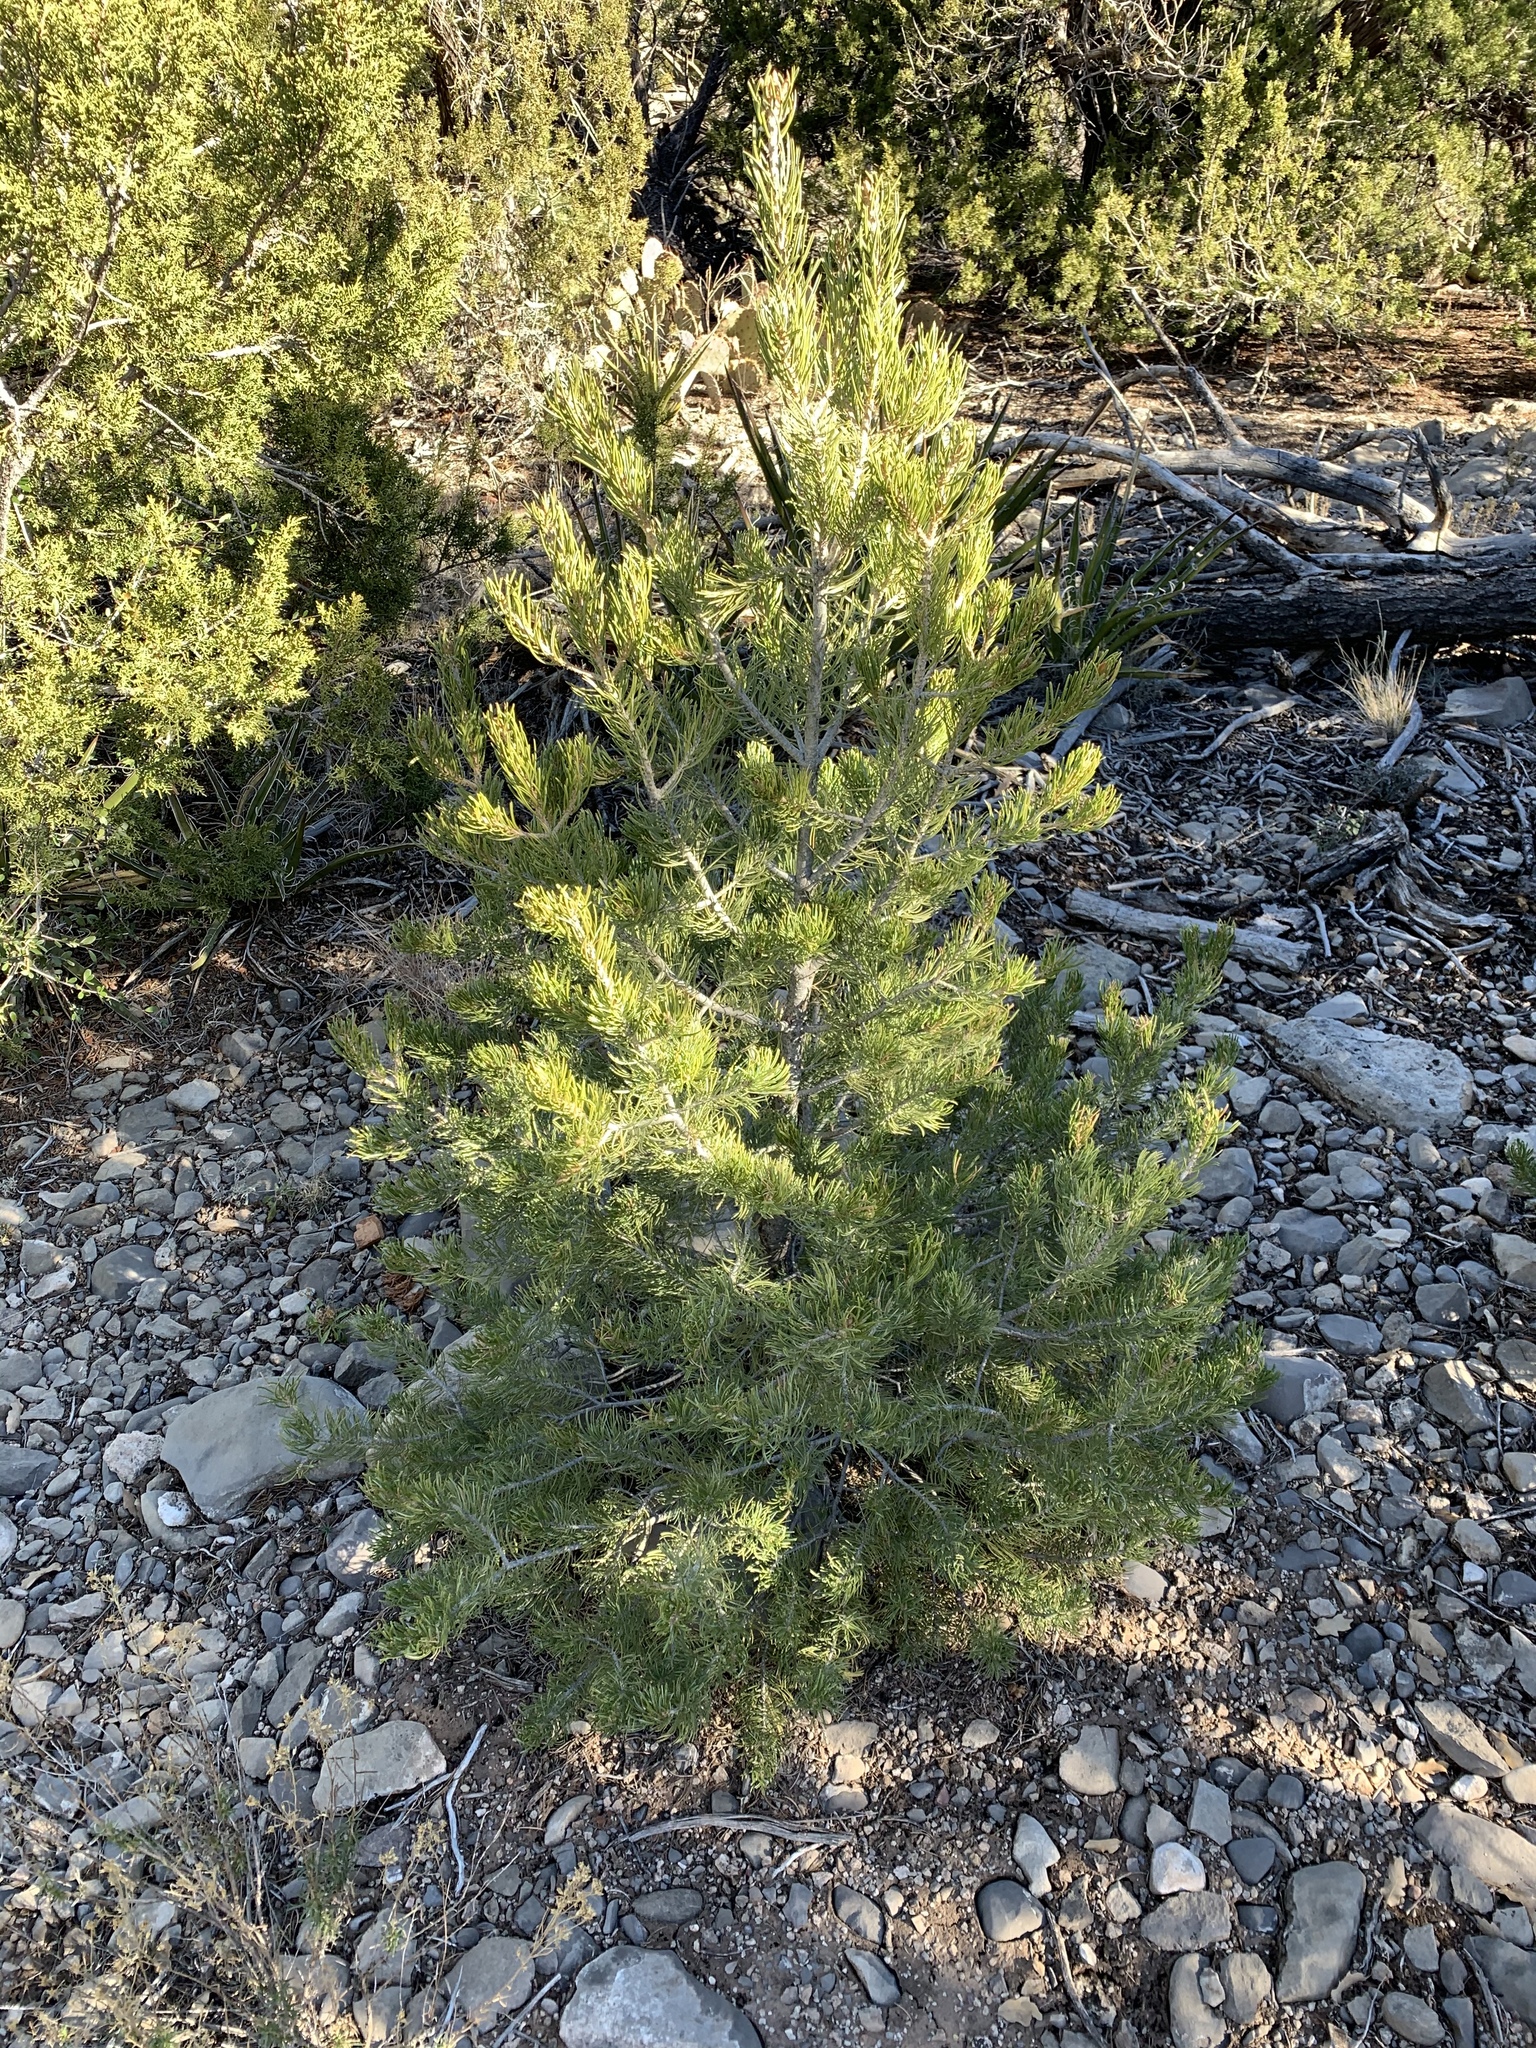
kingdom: Plantae
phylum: Tracheophyta
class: Pinopsida
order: Pinales
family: Pinaceae
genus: Pinus
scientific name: Pinus edulis
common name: Colorado pinyon
